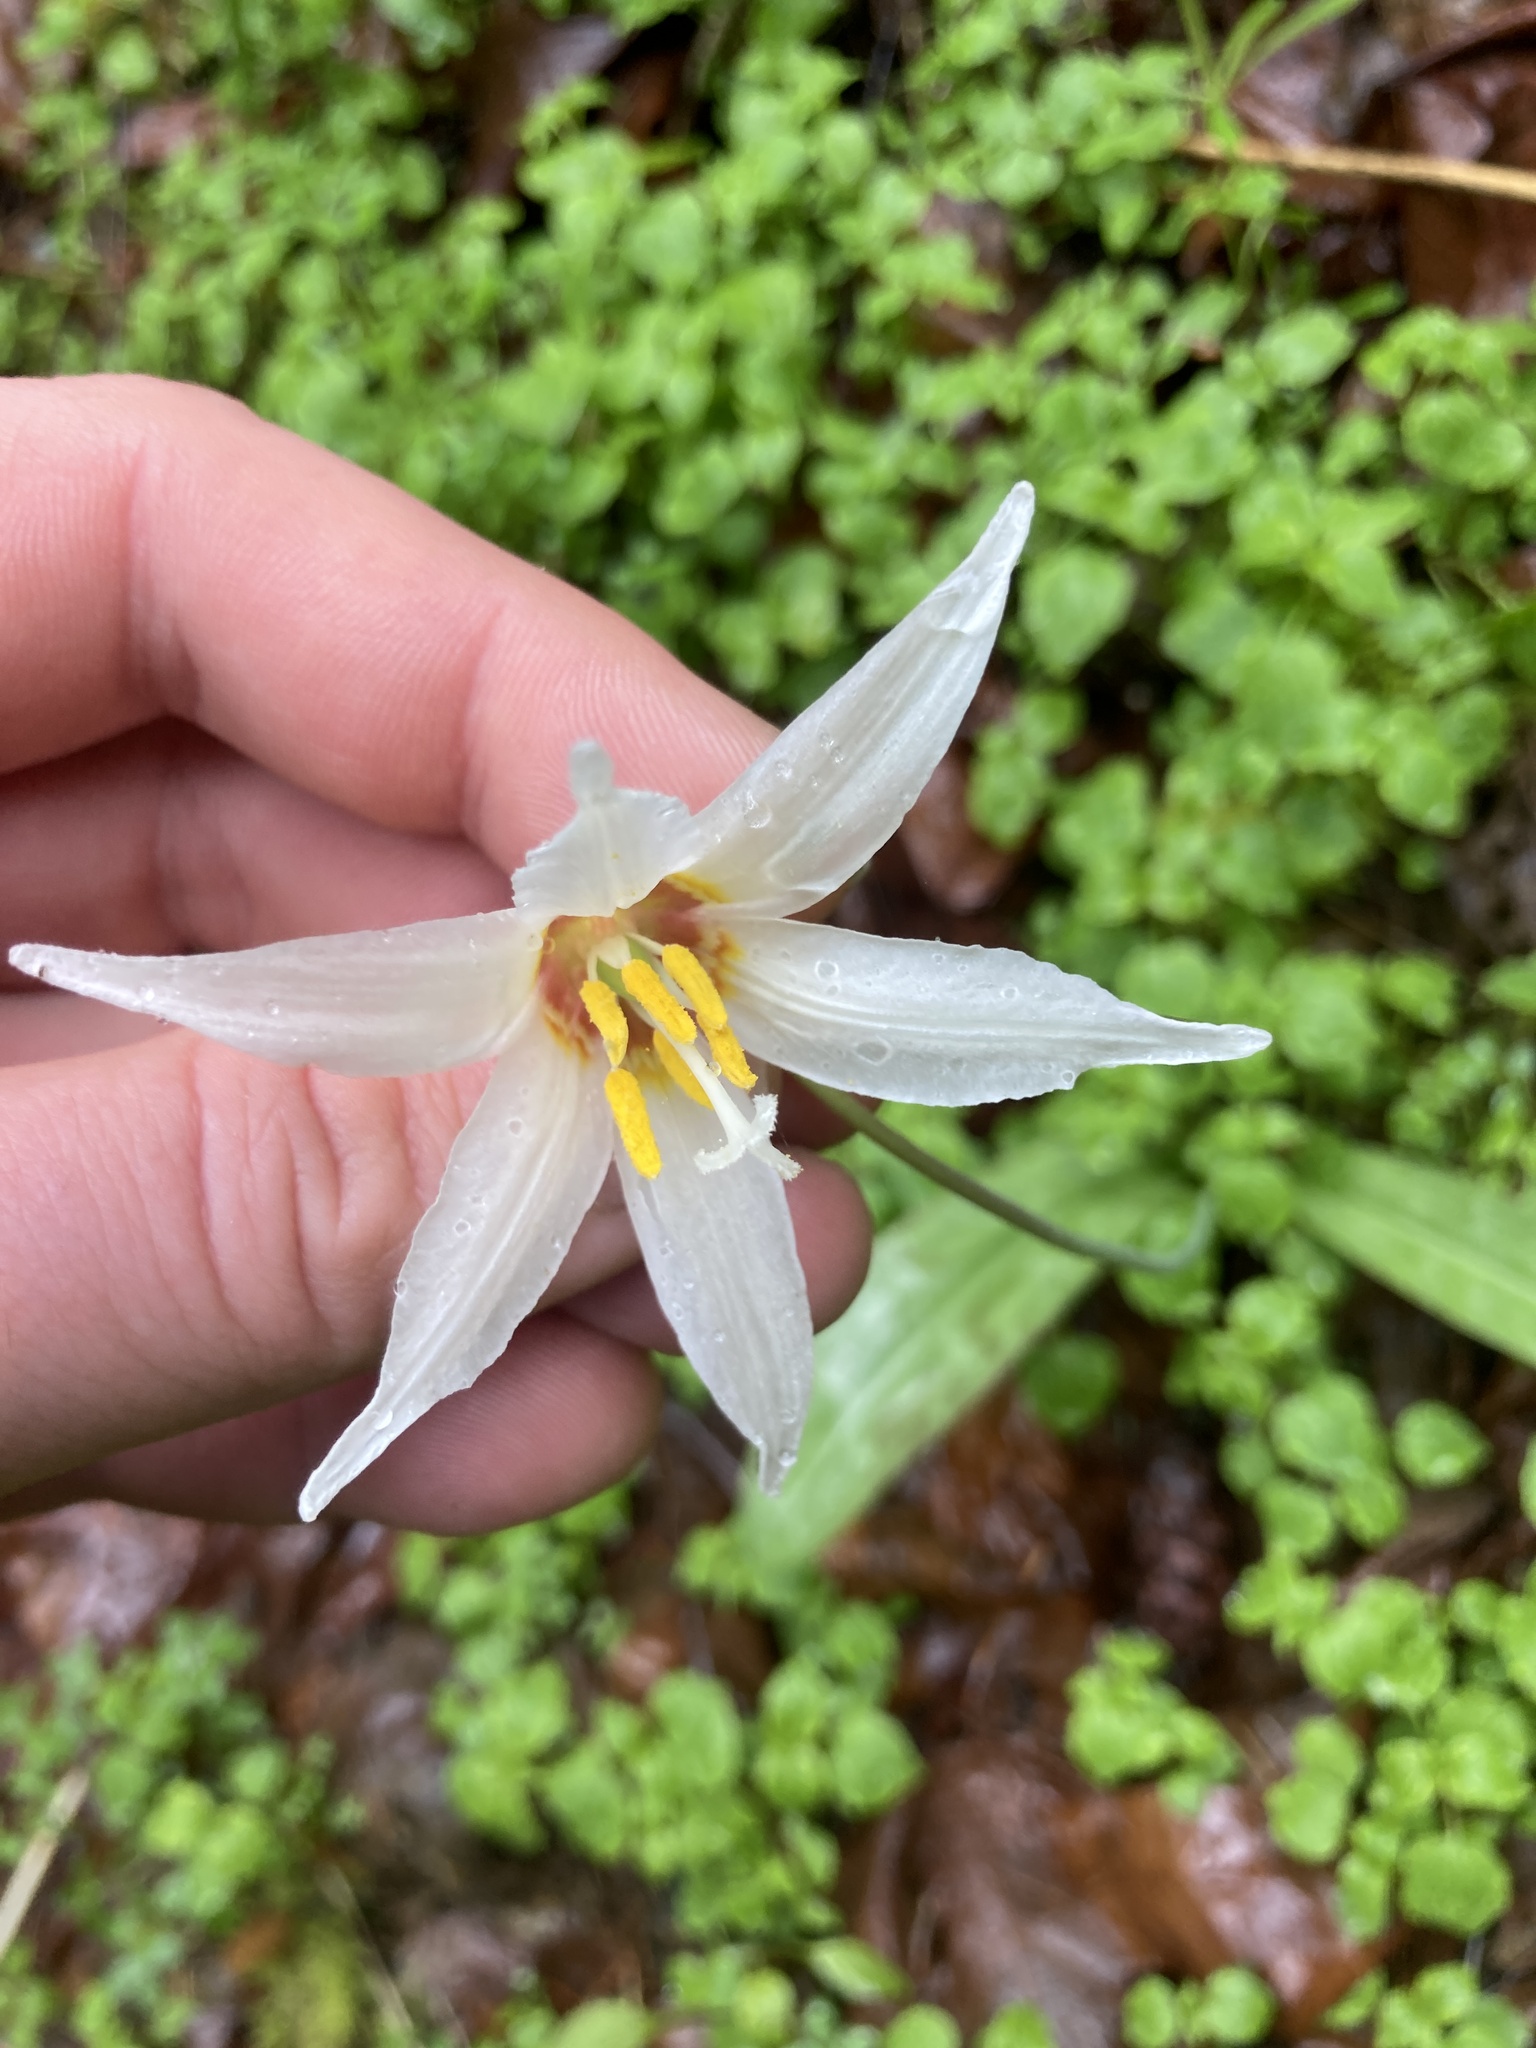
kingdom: Plantae
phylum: Tracheophyta
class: Liliopsida
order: Liliales
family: Liliaceae
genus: Erythronium
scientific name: Erythronium oregonum
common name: Giant adder's-tongue
